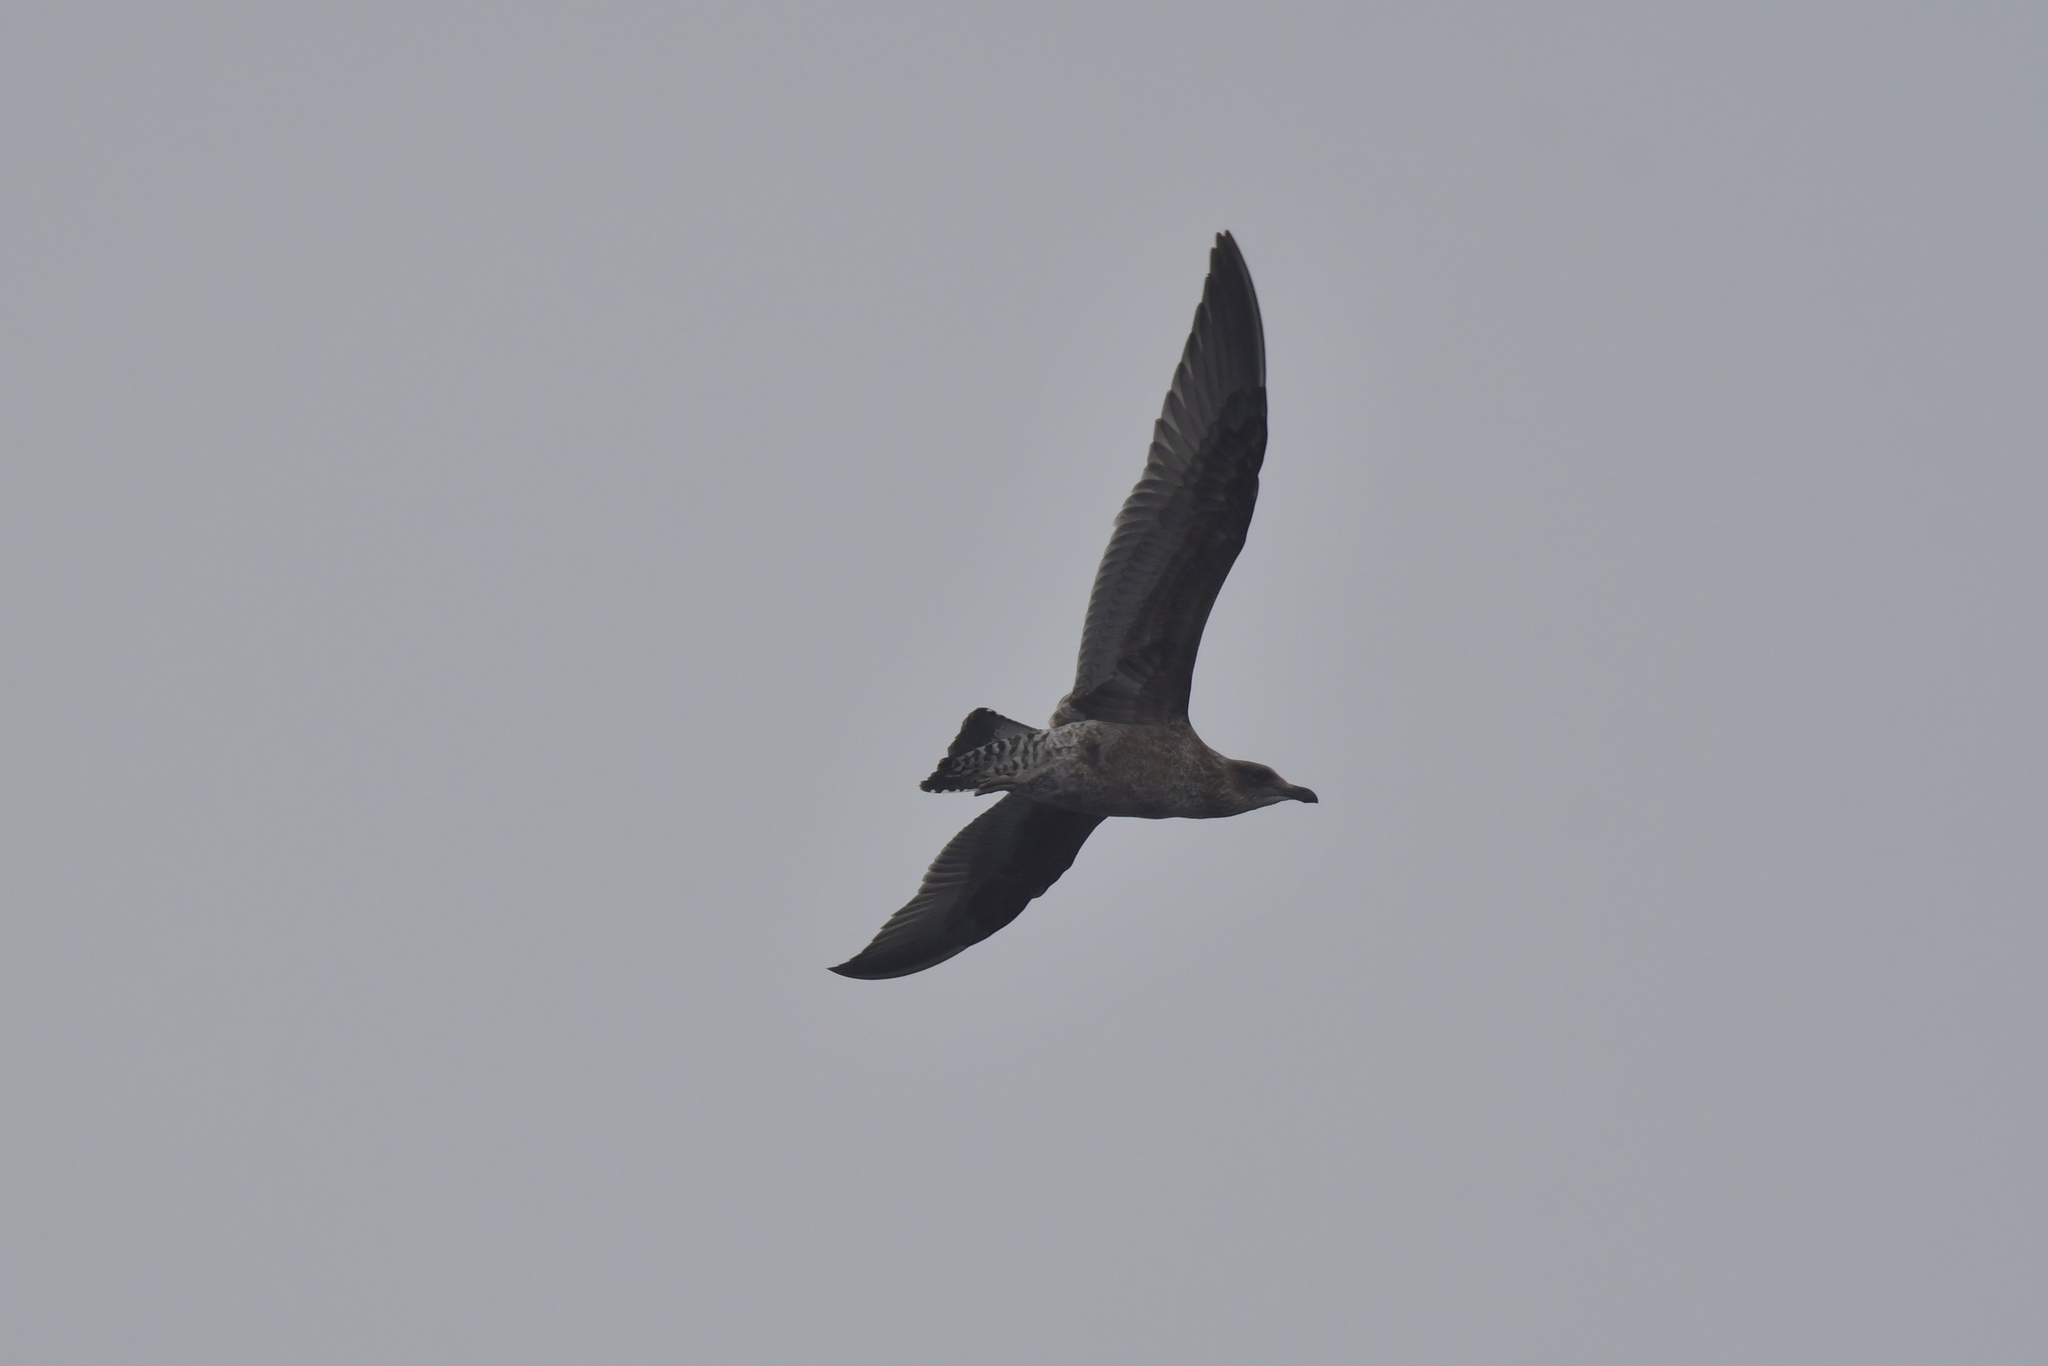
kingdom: Animalia
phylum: Chordata
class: Aves
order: Charadriiformes
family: Laridae
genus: Larus
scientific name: Larus dominicanus
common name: Kelp gull
